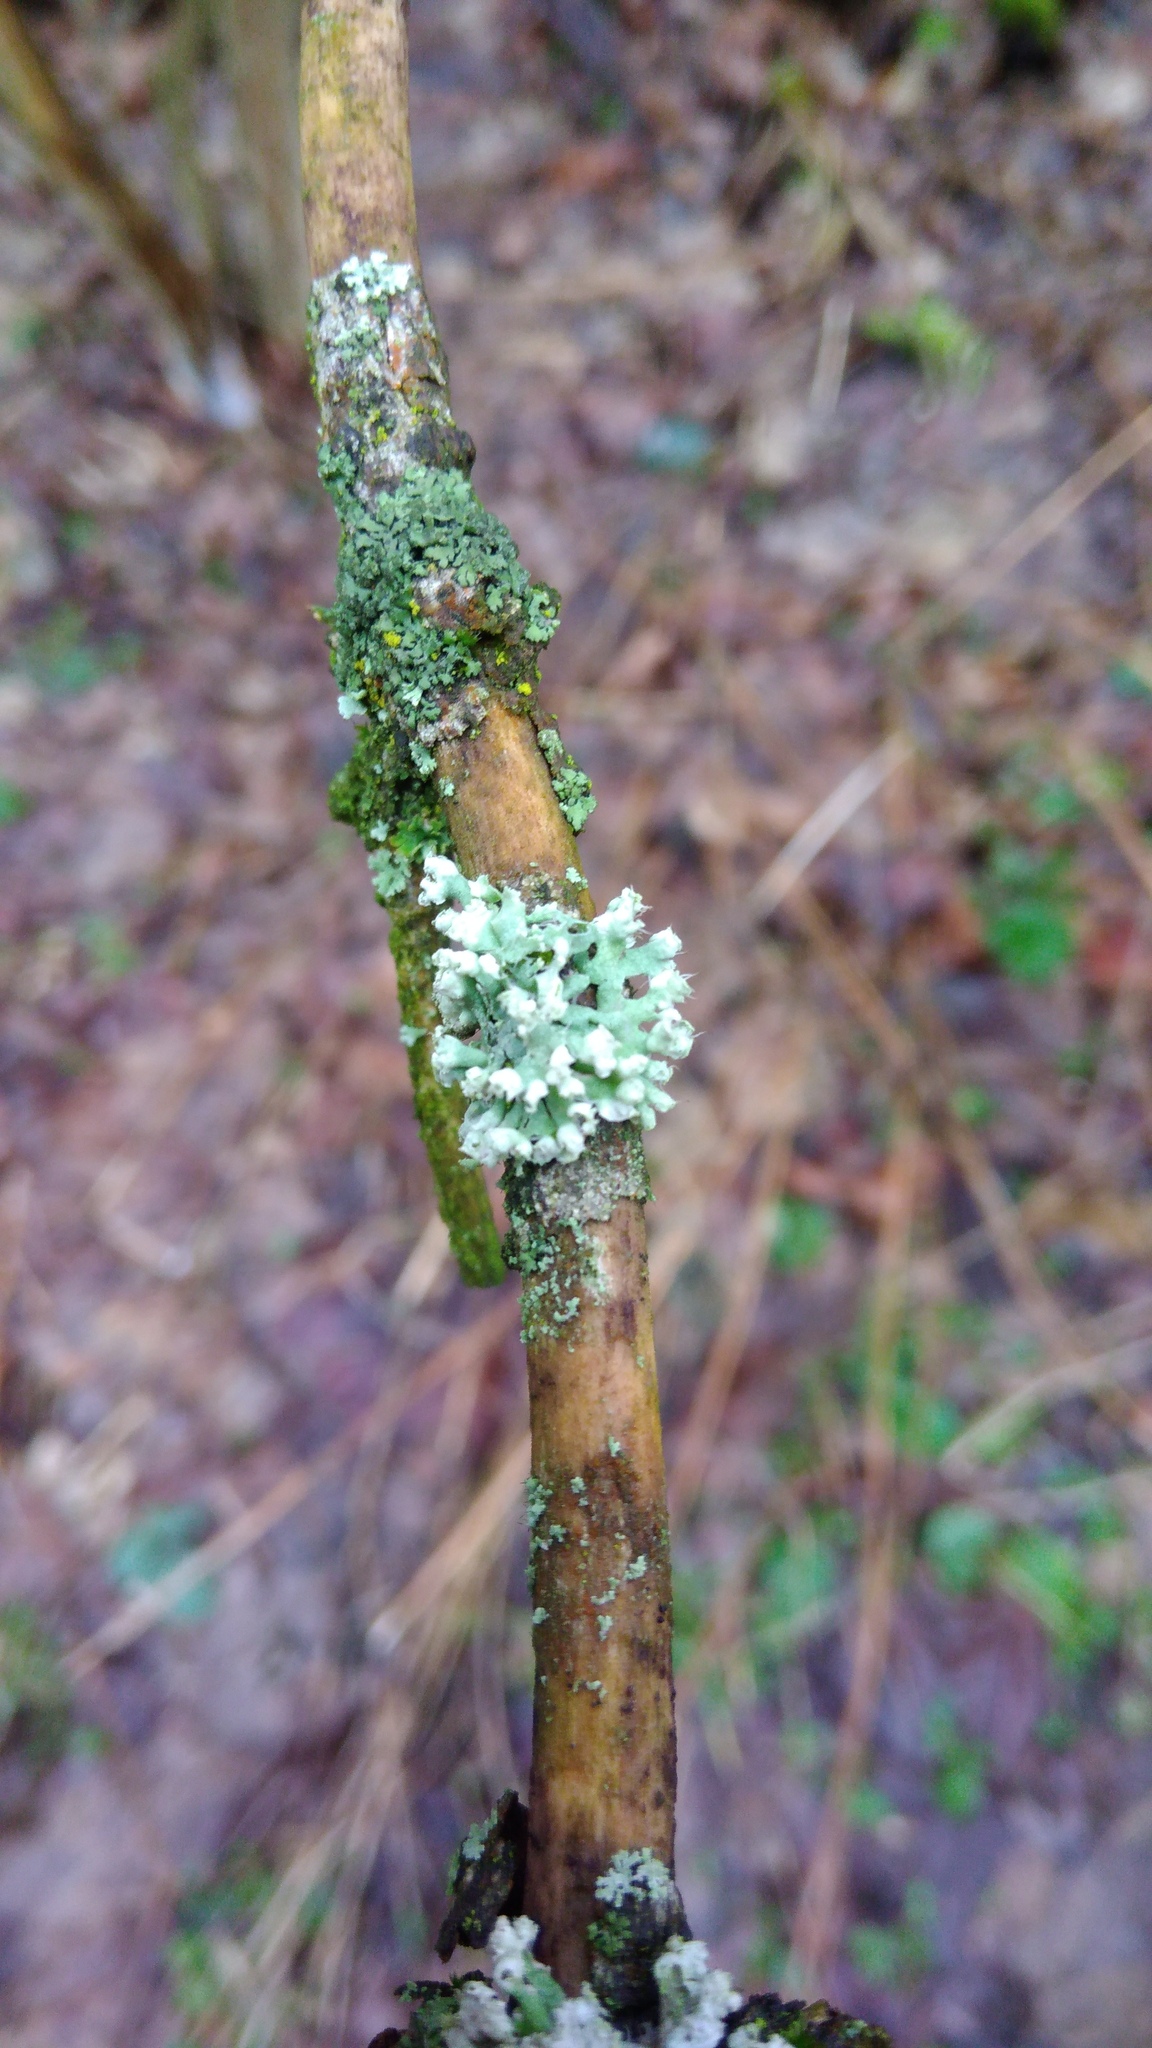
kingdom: Fungi
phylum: Ascomycota
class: Lecanoromycetes
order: Caliciales
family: Physciaceae
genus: Physcia
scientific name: Physcia adscendens
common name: Hooded rosette lichen
